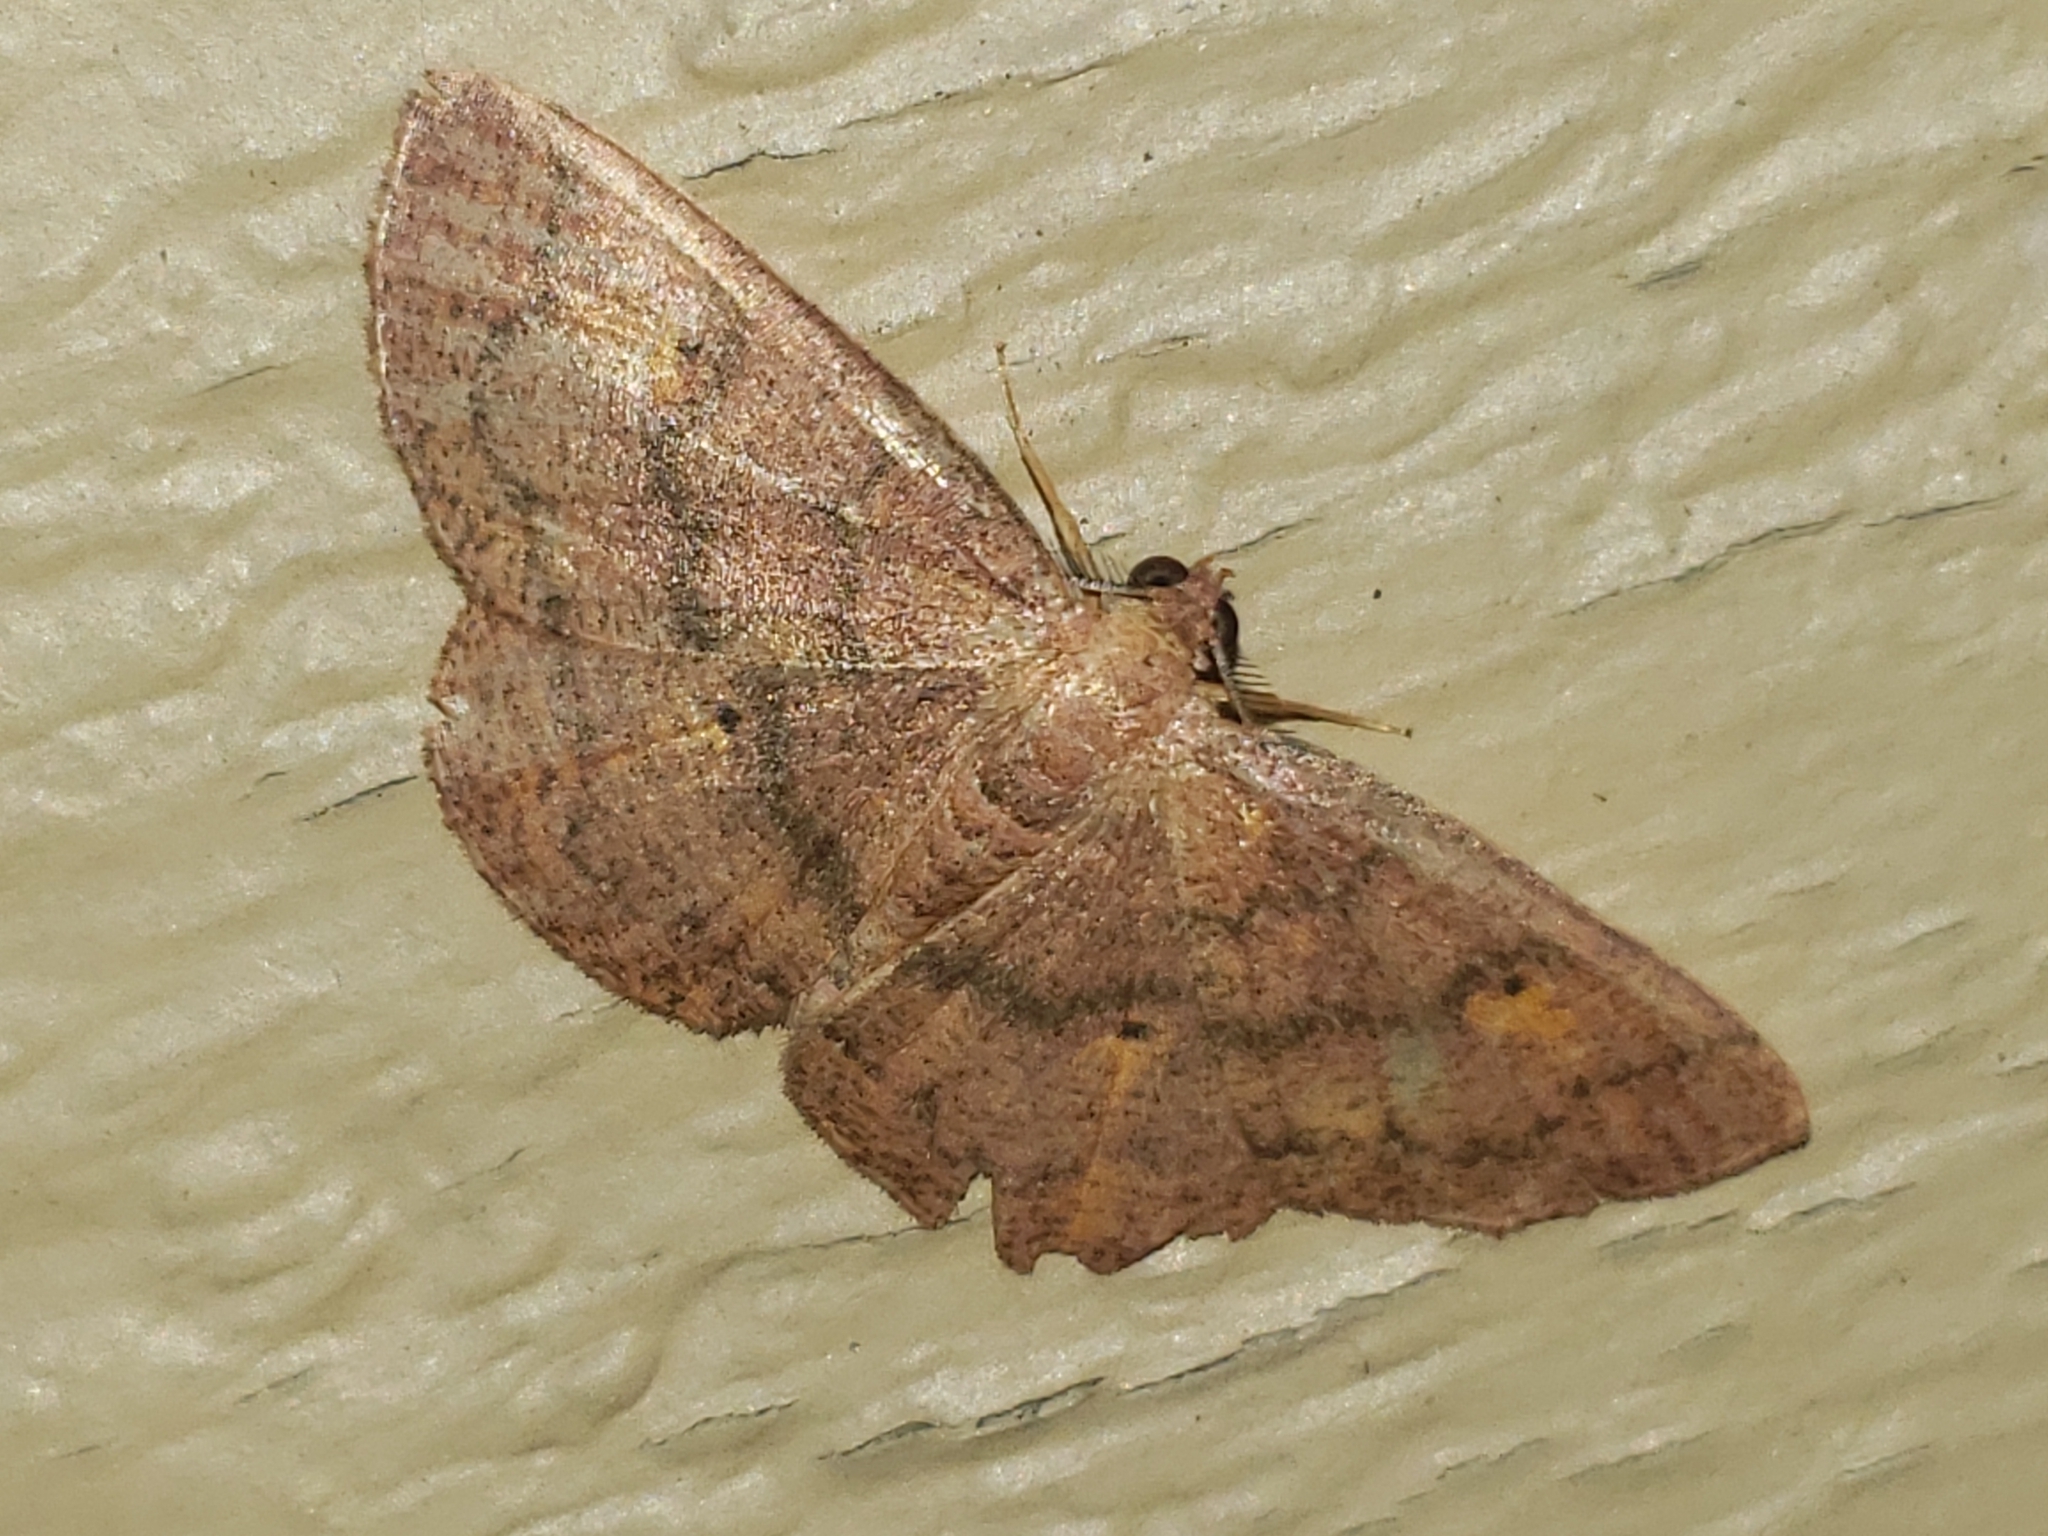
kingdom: Animalia
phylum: Arthropoda
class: Insecta
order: Lepidoptera
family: Geometridae
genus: Ilexia
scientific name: Ilexia intractata
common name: Black-dotted ruddy moth
